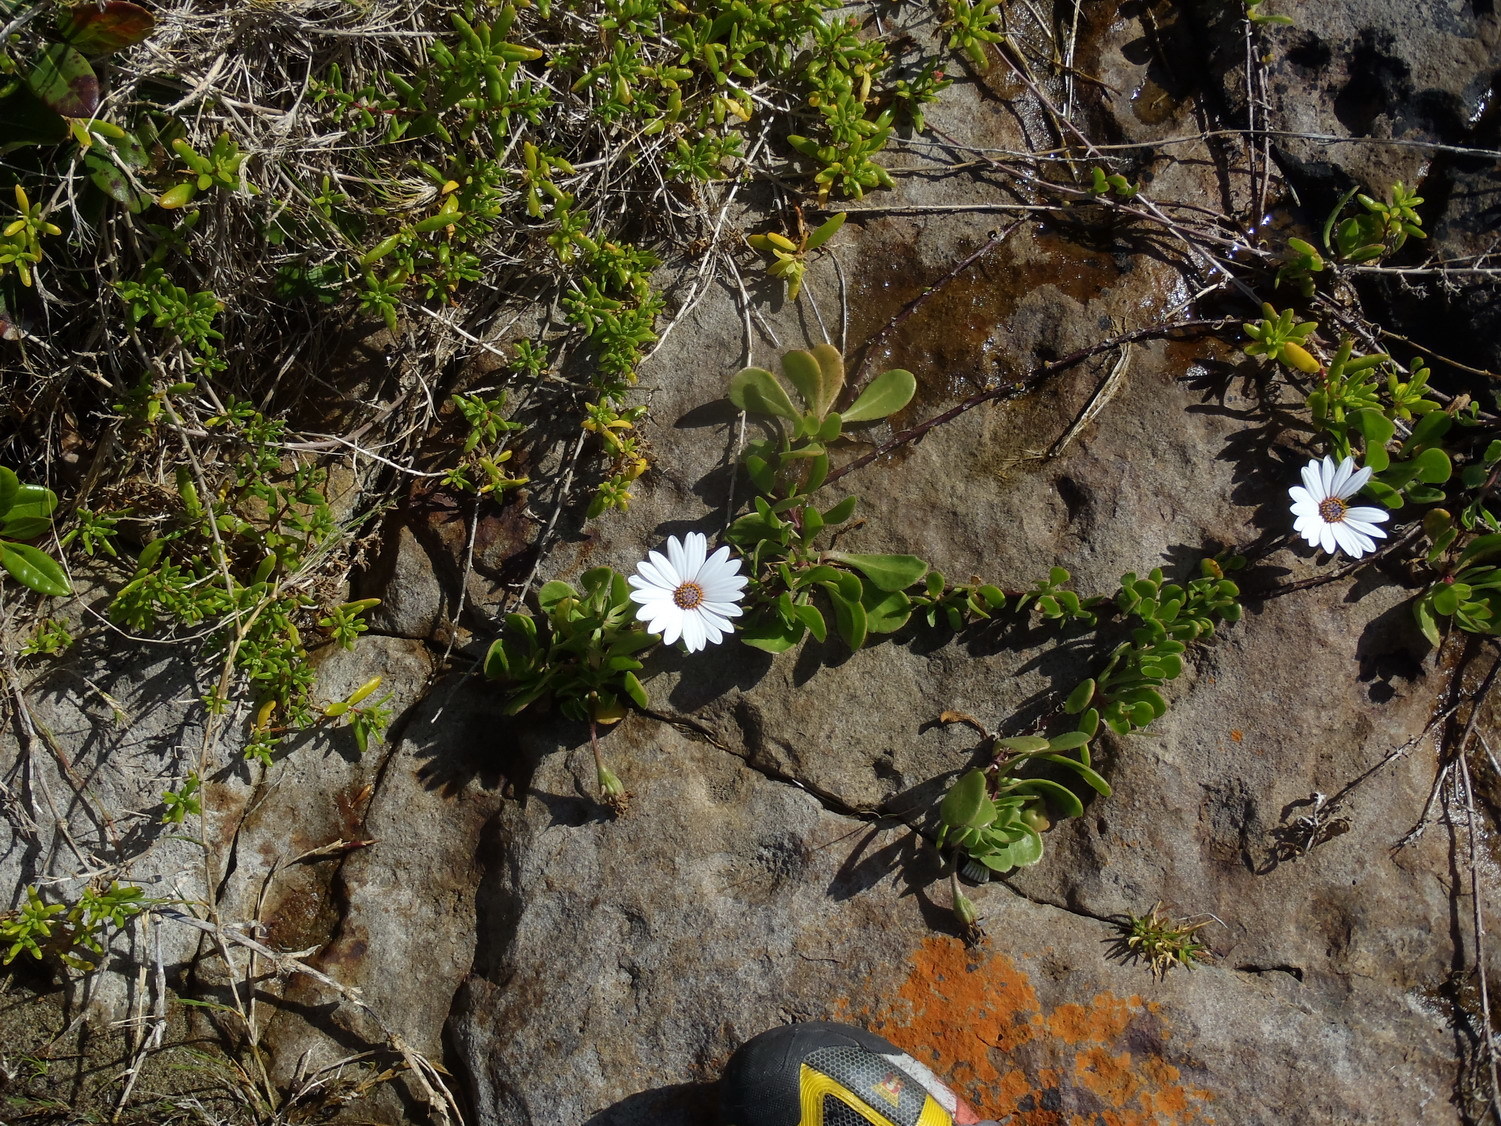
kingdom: Plantae
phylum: Tracheophyta
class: Magnoliopsida
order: Asterales
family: Asteraceae
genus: Dimorphotheca
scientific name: Dimorphotheca fruticosa
